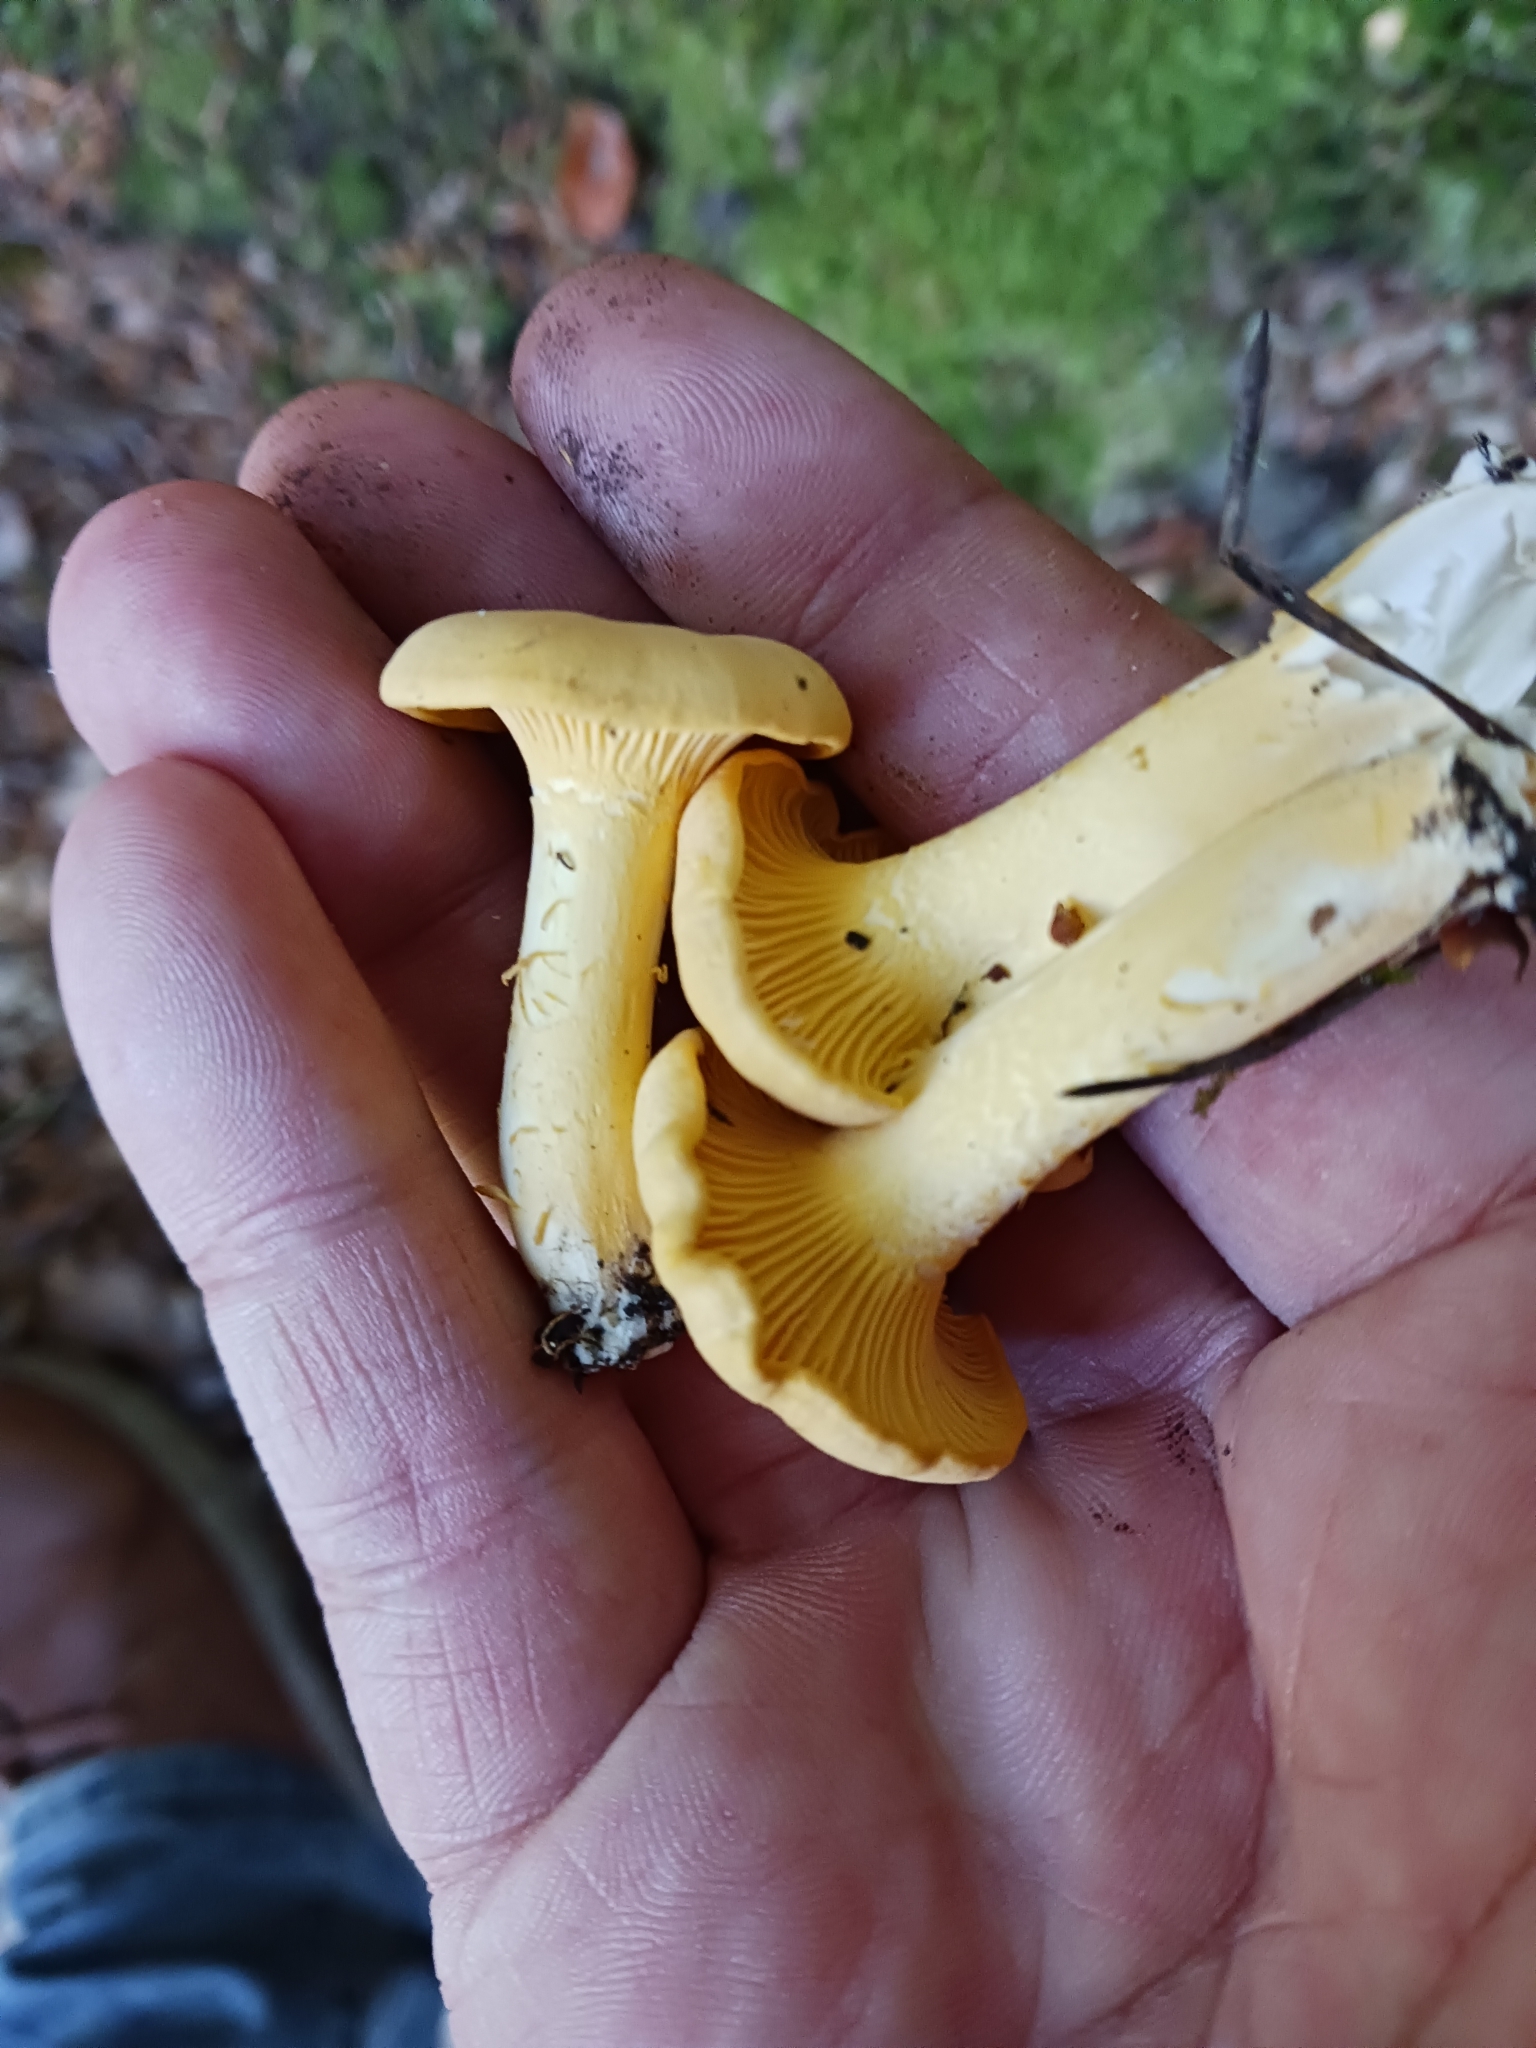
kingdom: Fungi
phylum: Basidiomycota
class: Agaricomycetes
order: Cantharellales
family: Hydnaceae
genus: Cantharellus
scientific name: Cantharellus cibarius
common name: Chanterelle
